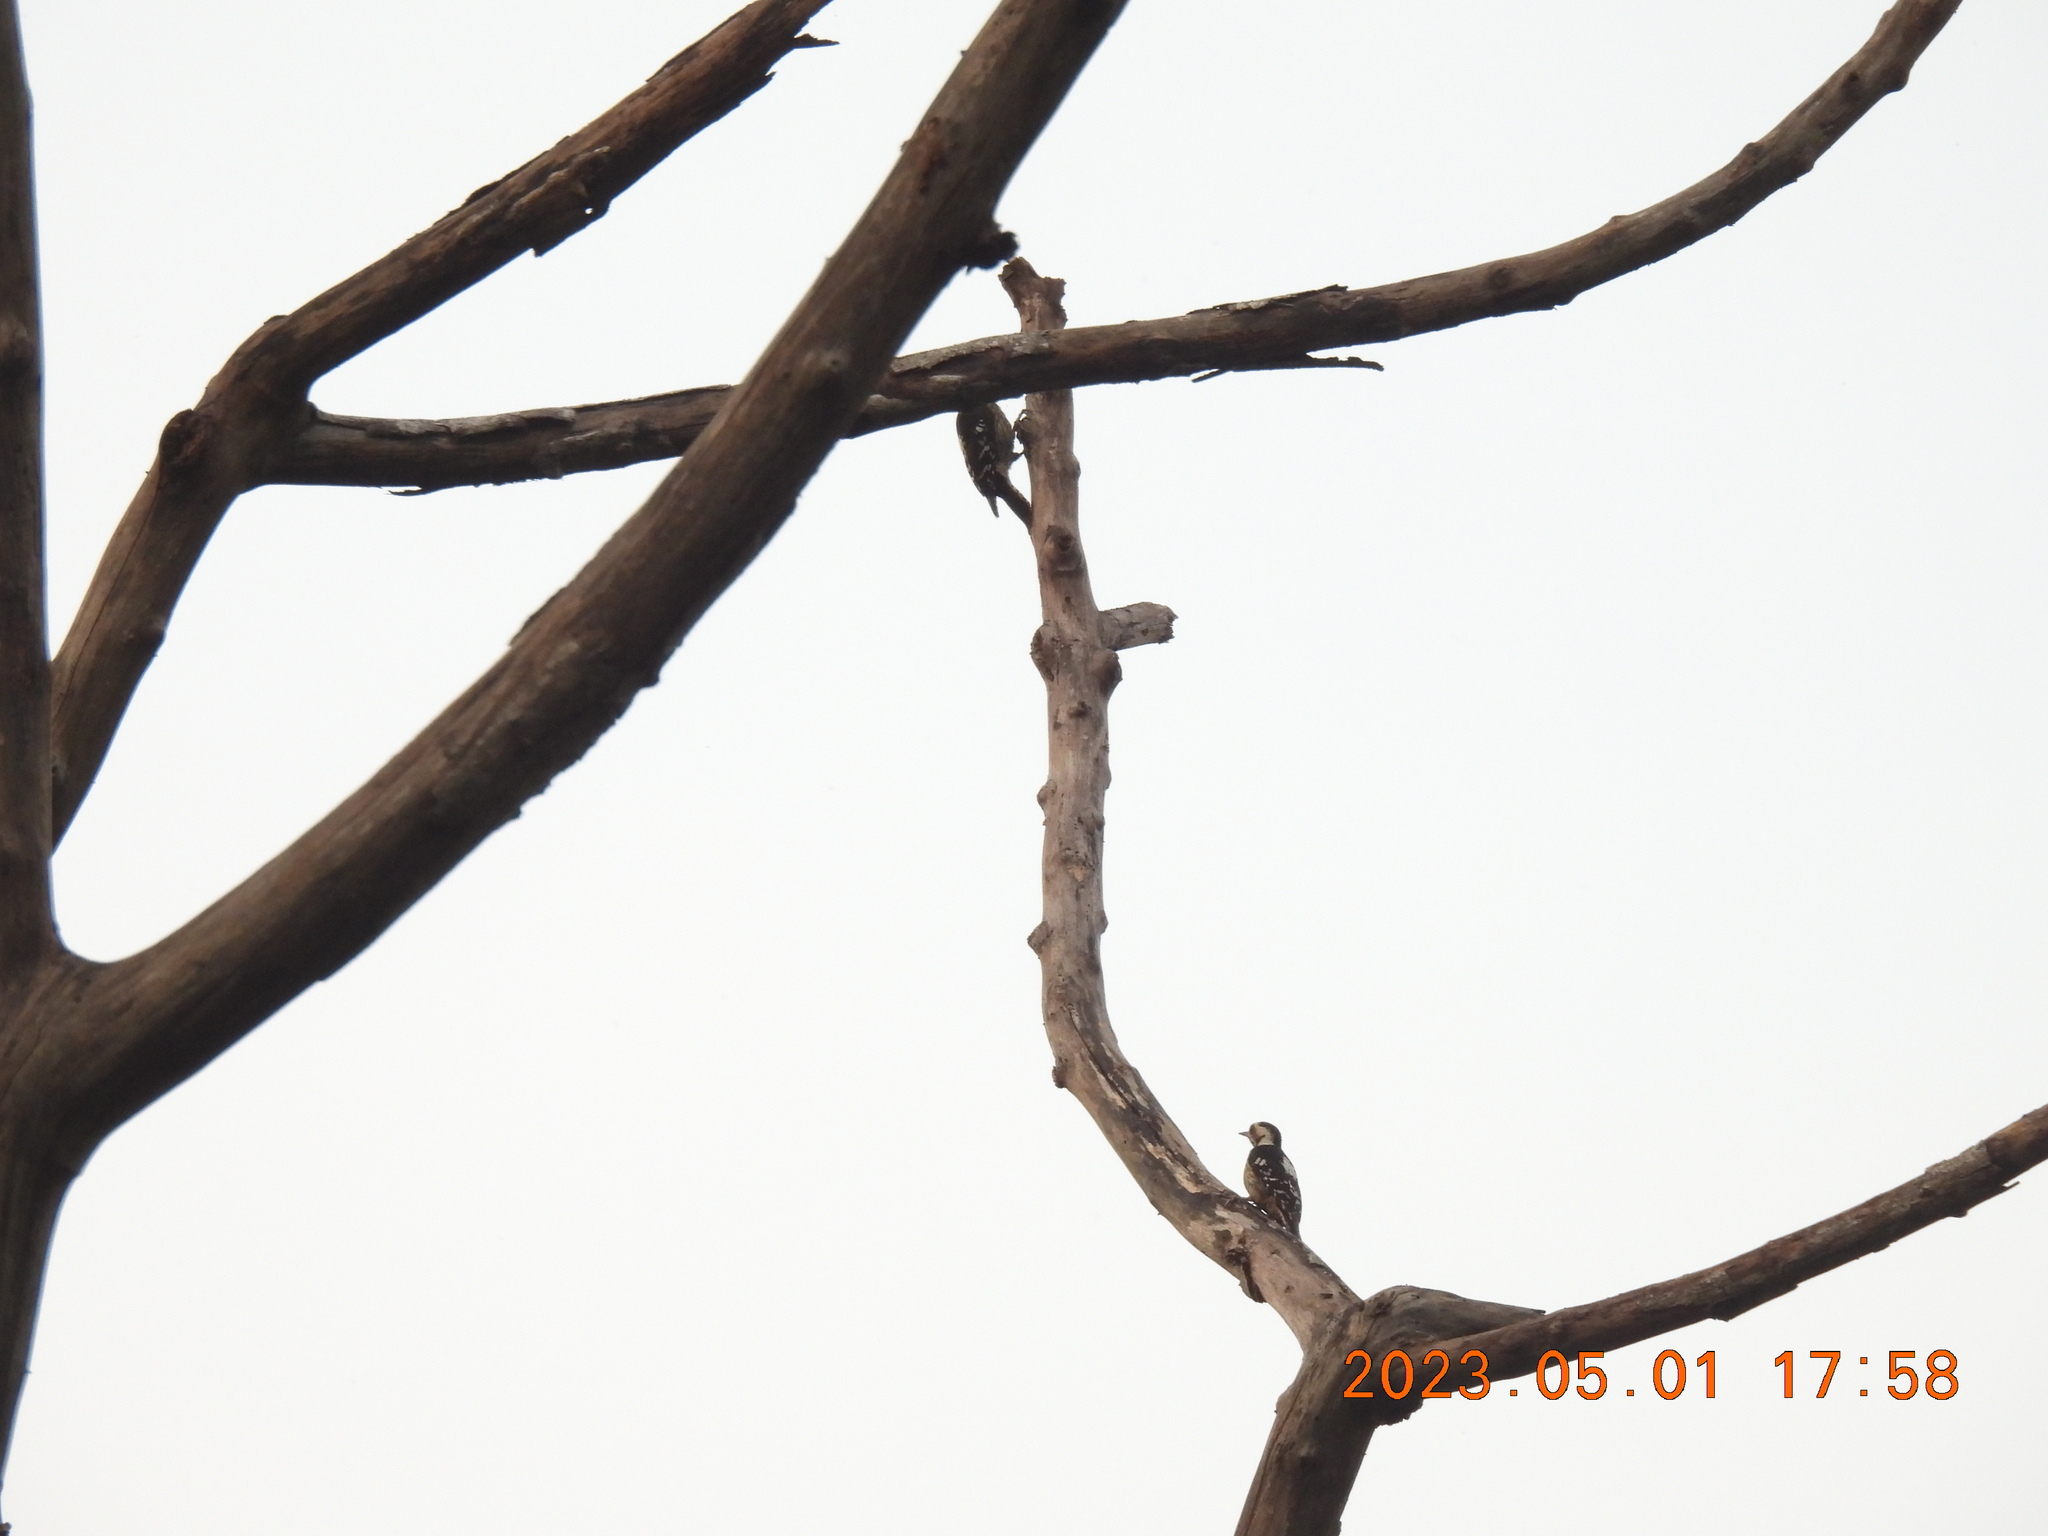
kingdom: Animalia
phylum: Chordata
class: Aves
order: Piciformes
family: Picidae
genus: Yungipicus
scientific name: Yungipicus canicapillus
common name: Grey-capped pygmy woodpecker
